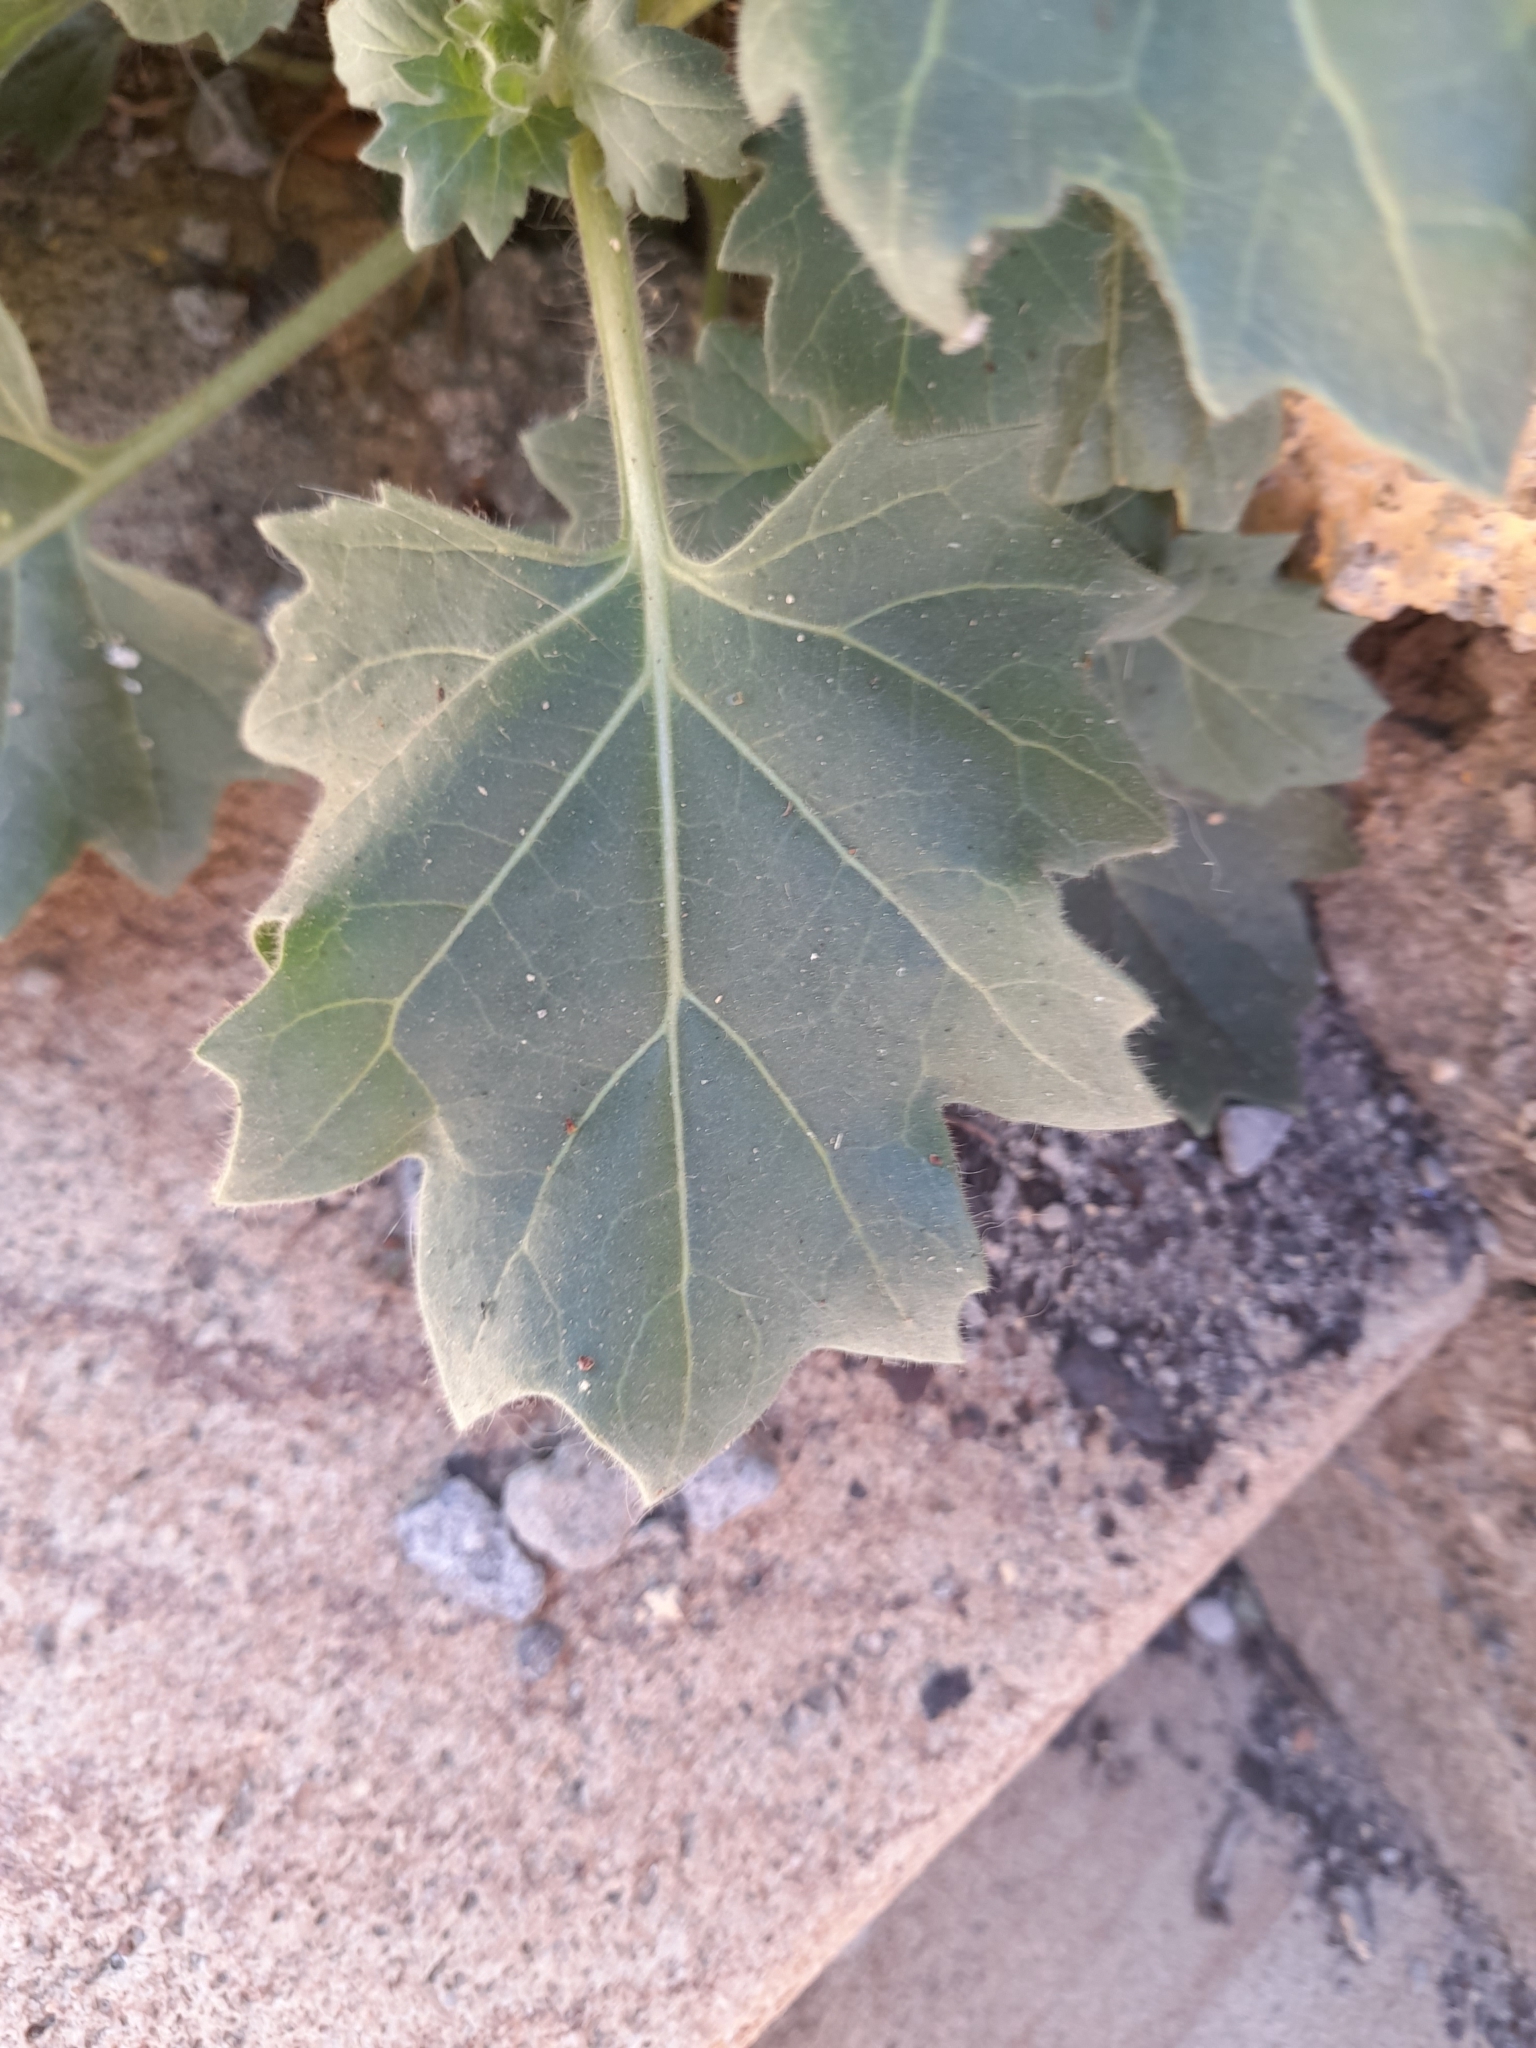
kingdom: Plantae
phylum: Tracheophyta
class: Magnoliopsida
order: Solanales
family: Solanaceae
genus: Hyoscyamus
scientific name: Hyoscyamus albus
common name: White henbane
